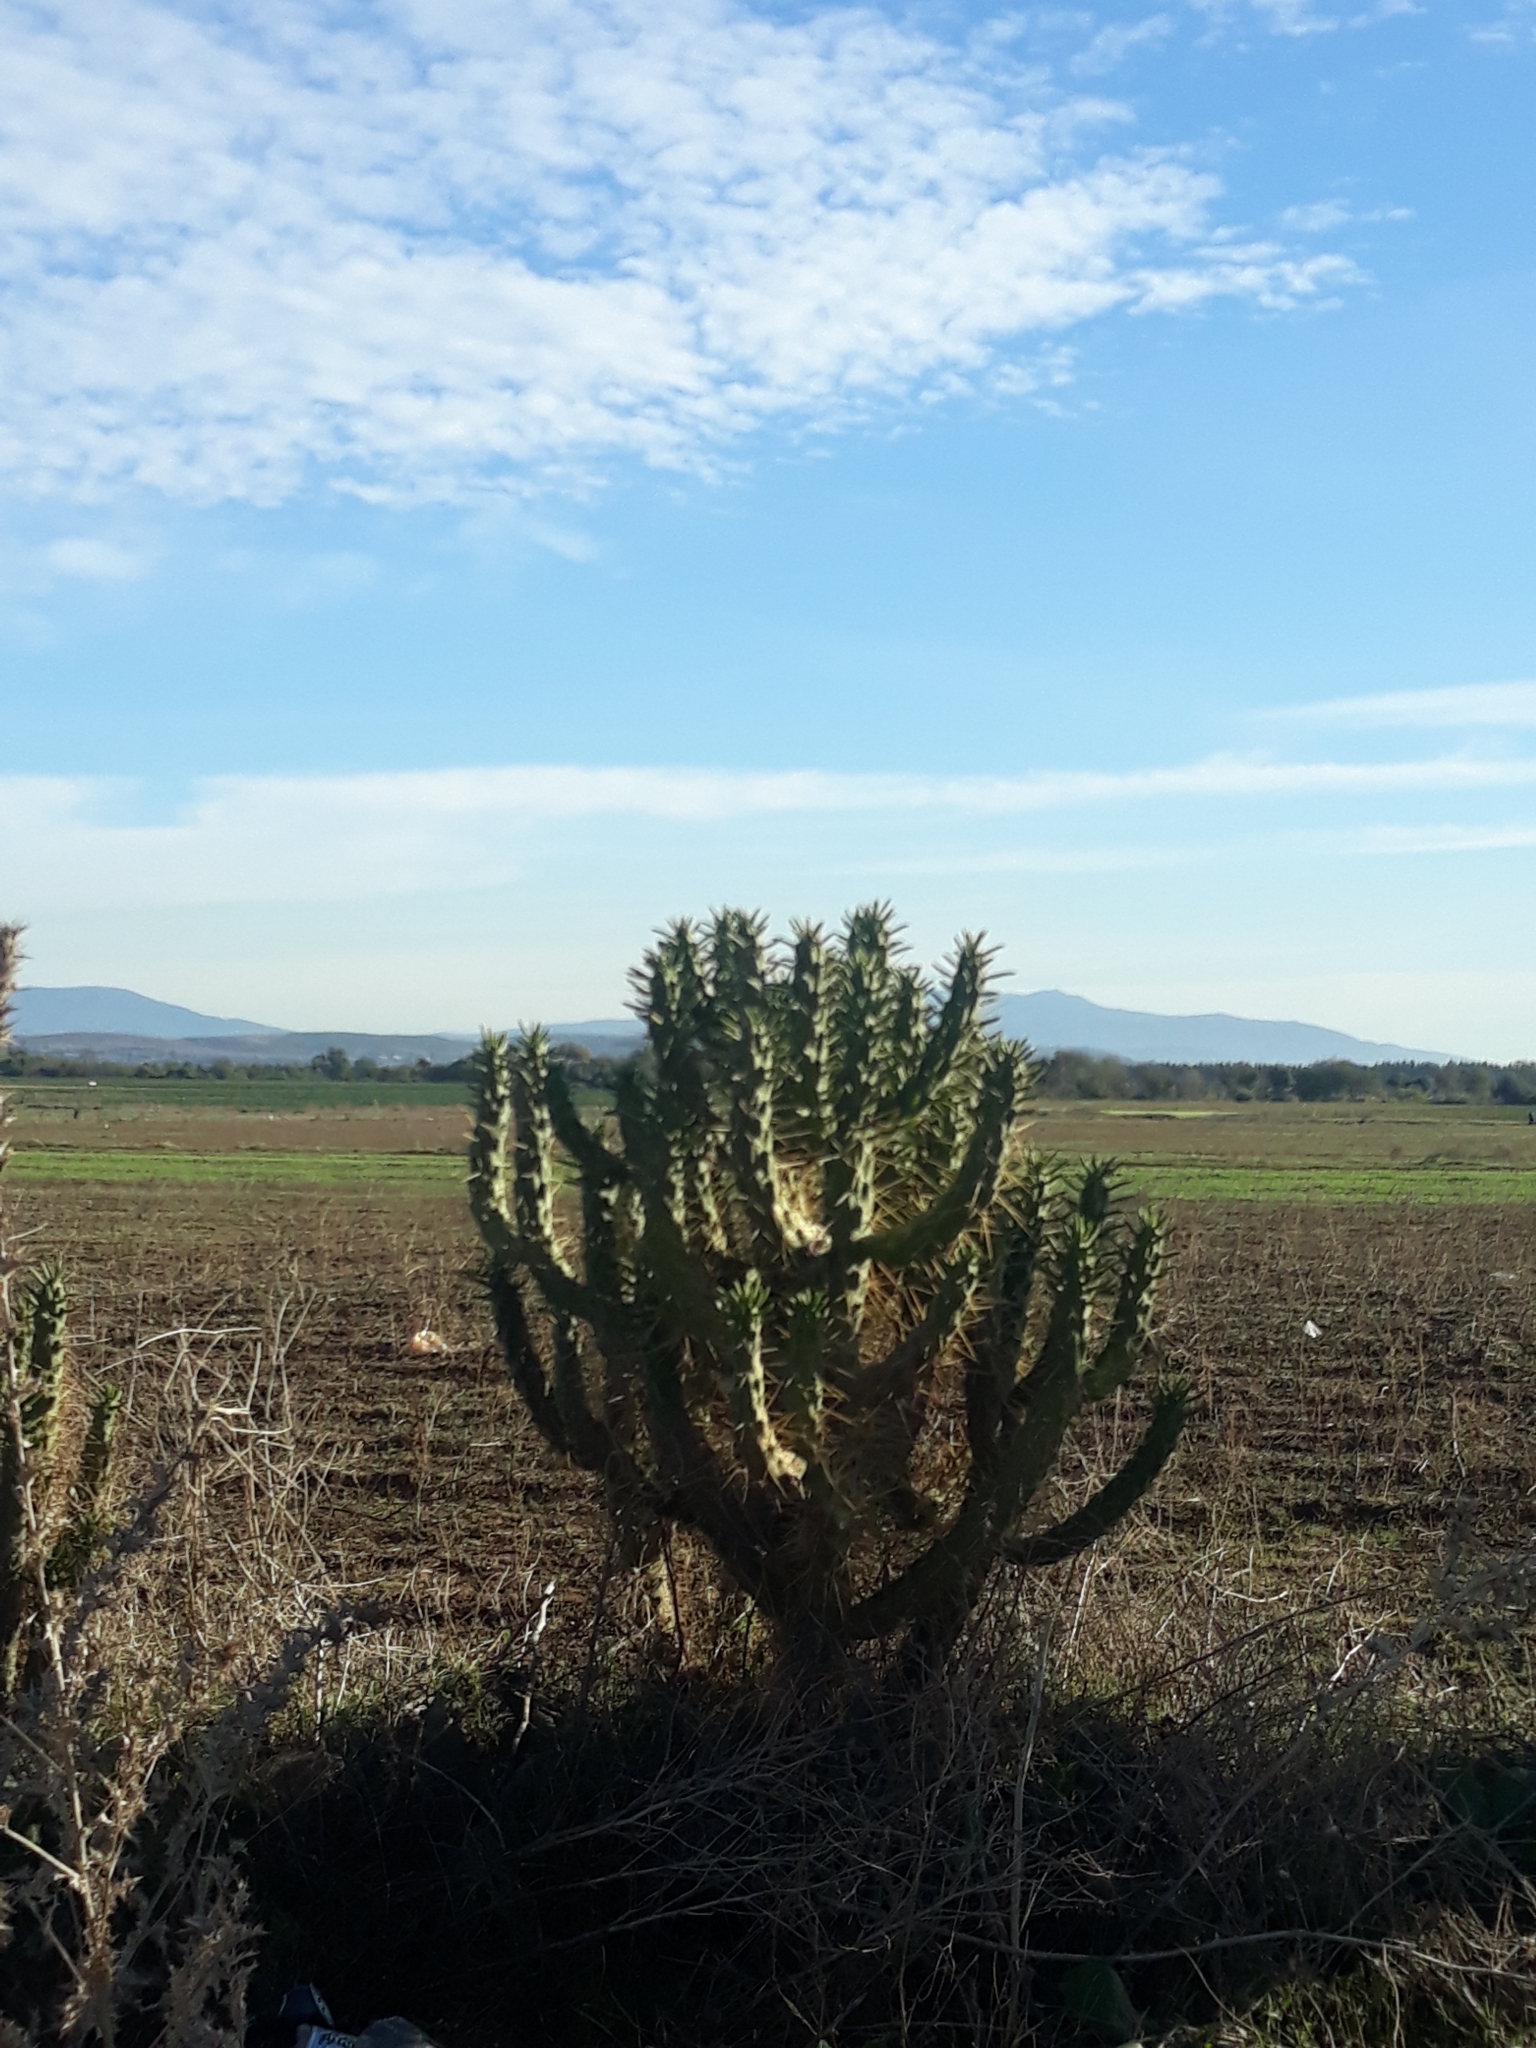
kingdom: Plantae
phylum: Tracheophyta
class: Magnoliopsida
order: Caryophyllales
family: Cactaceae
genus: Austrocylindropuntia
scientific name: Austrocylindropuntia subulata
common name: Eve's needle cactus
